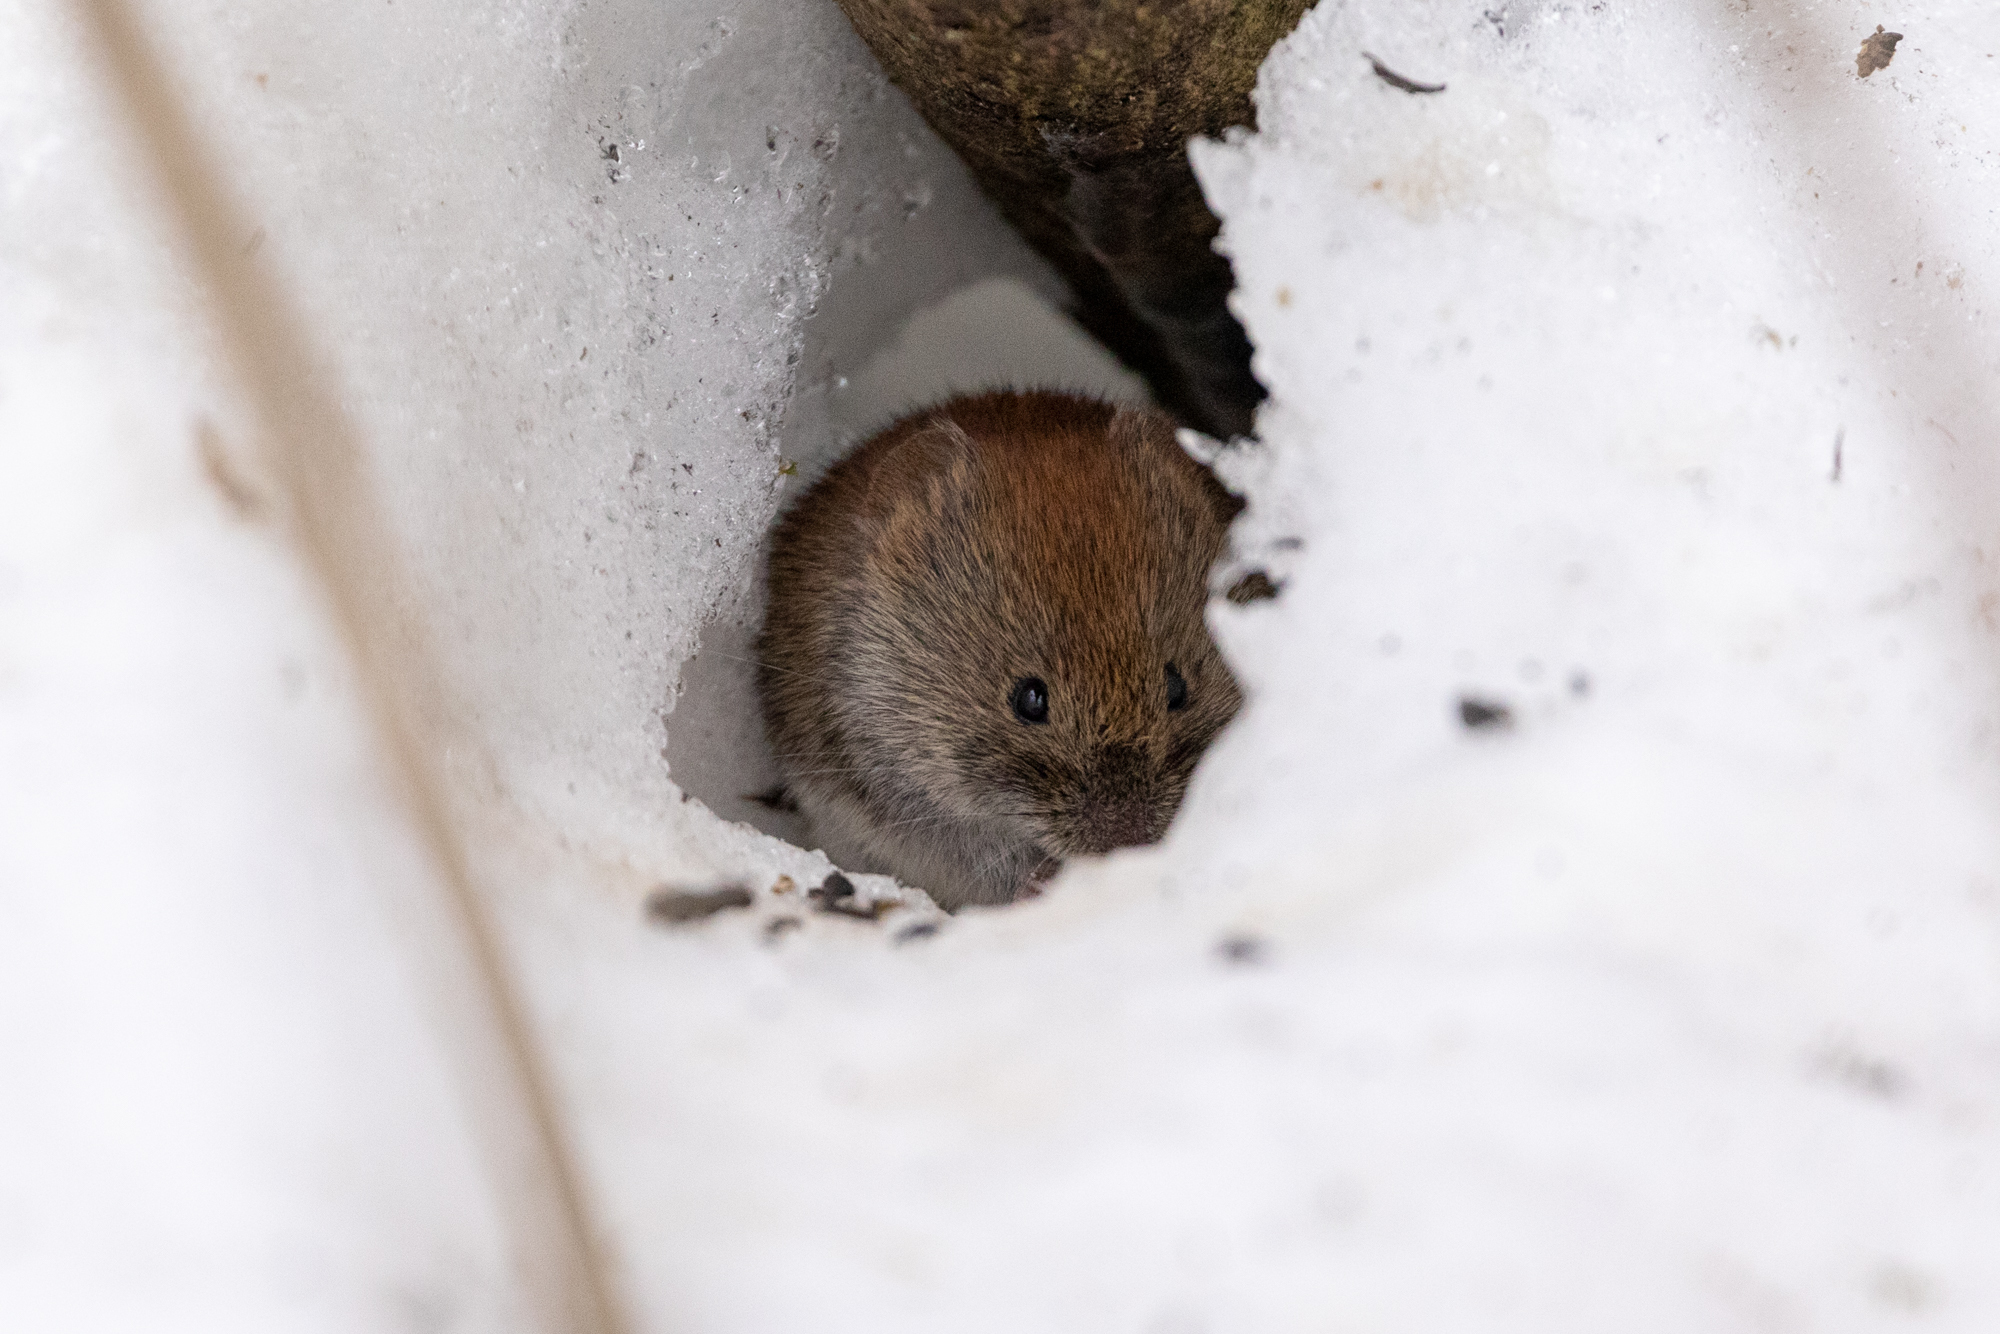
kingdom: Animalia
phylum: Chordata
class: Mammalia
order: Rodentia
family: Cricetidae
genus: Myodes
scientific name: Myodes glareolus
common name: Bank vole
